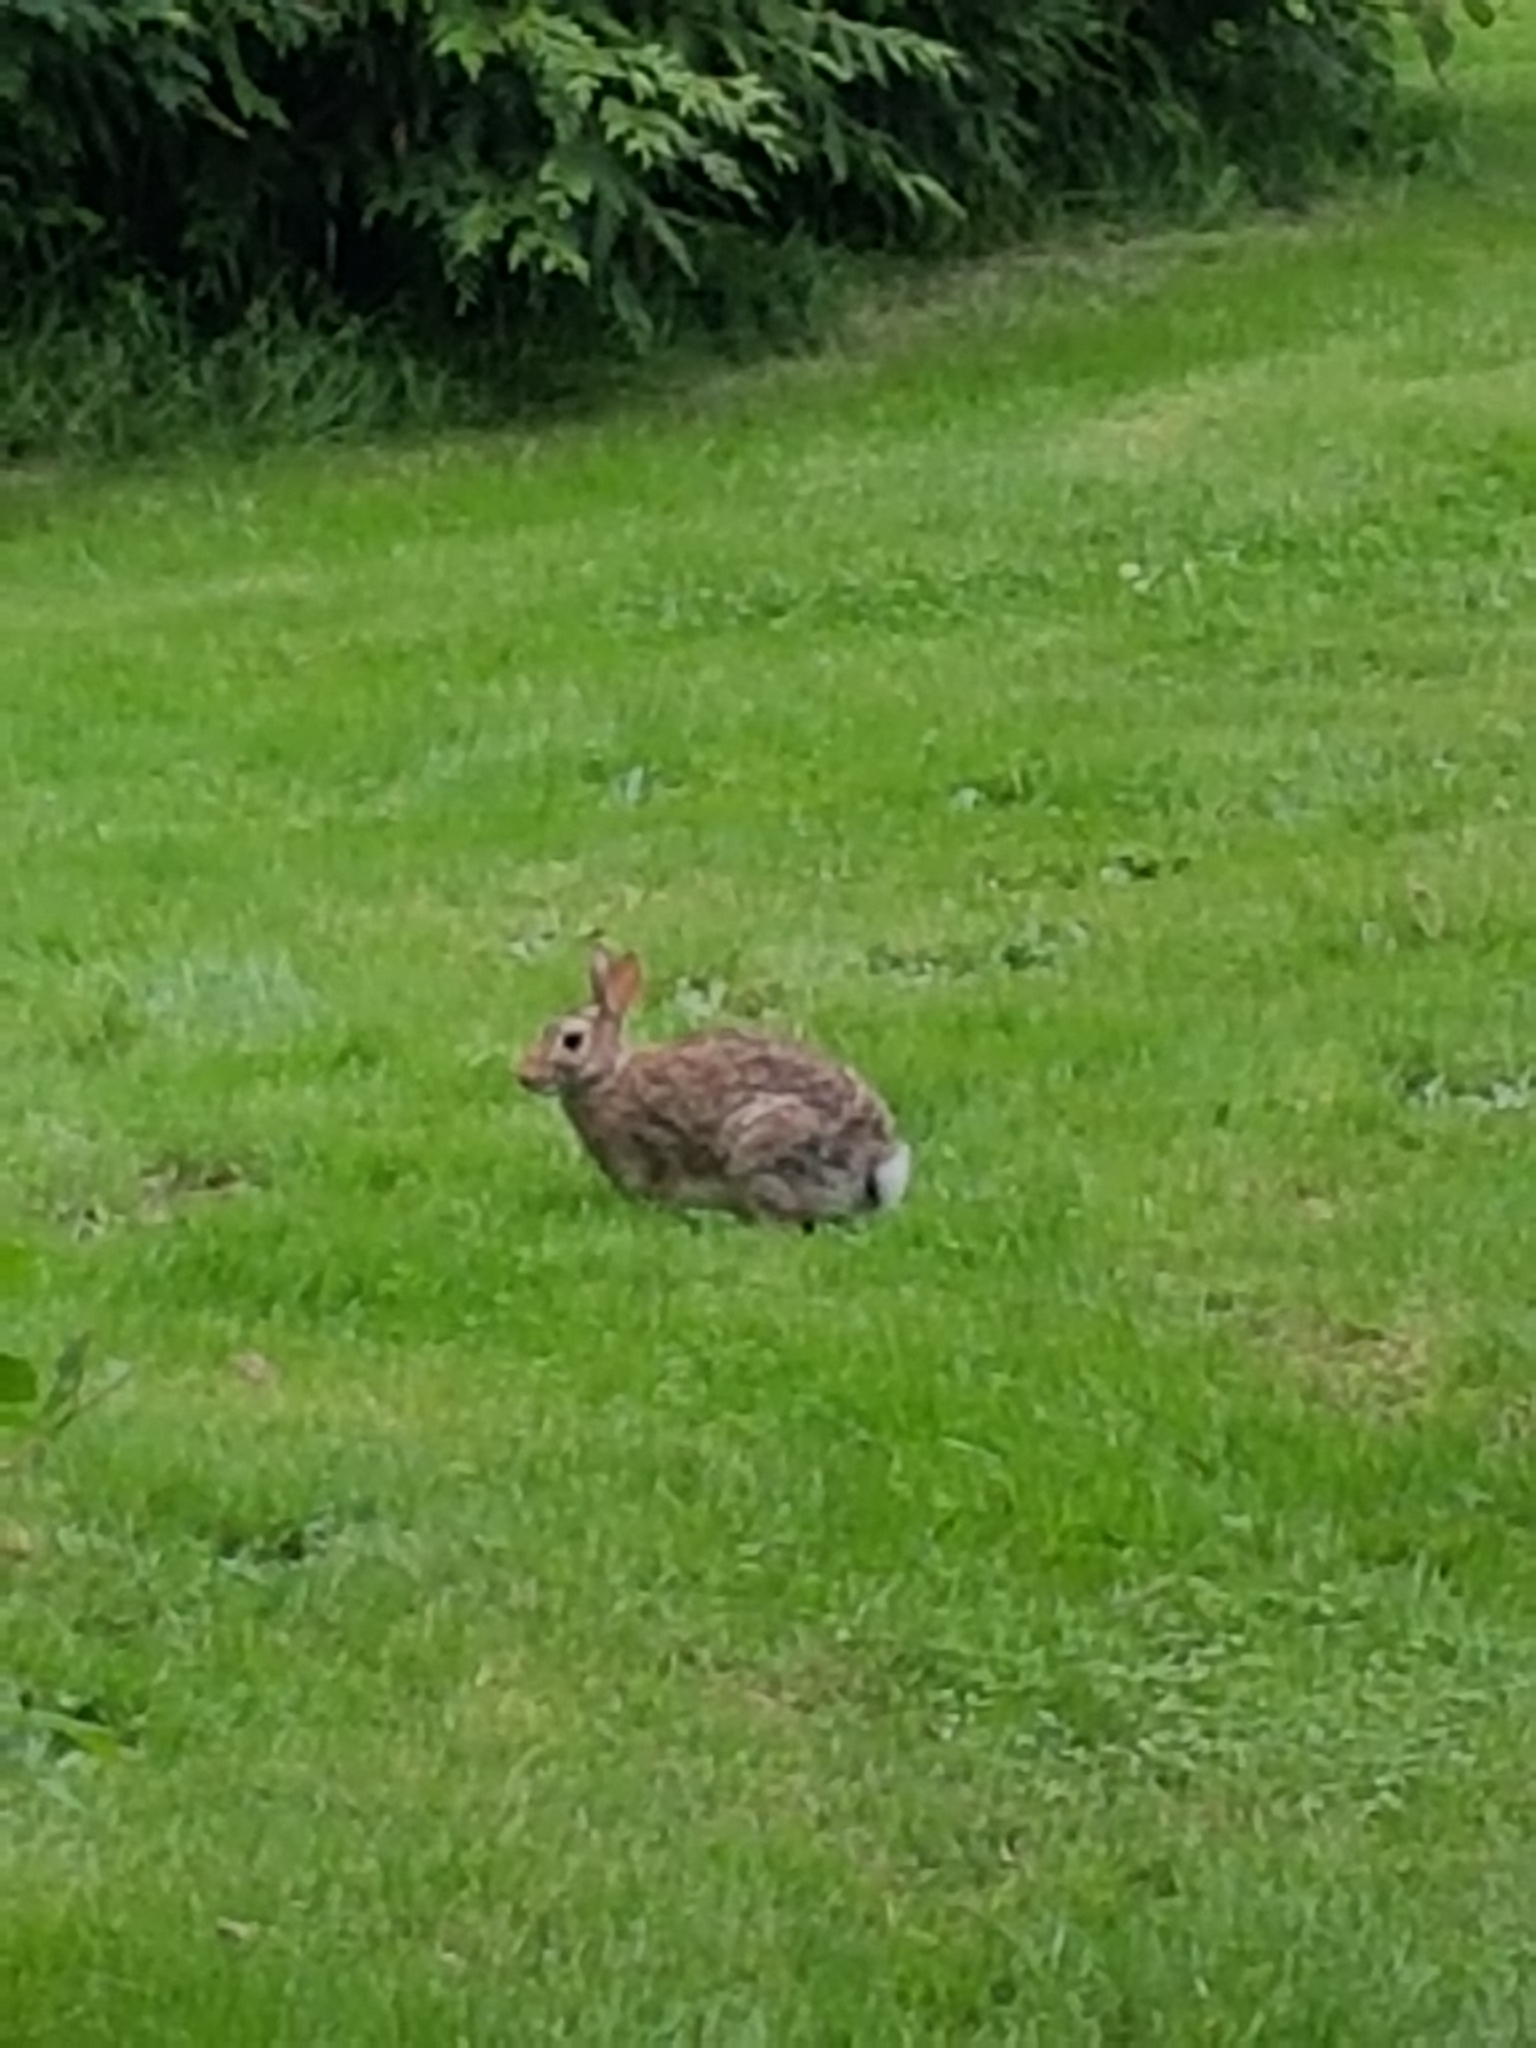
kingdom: Animalia
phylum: Chordata
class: Mammalia
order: Lagomorpha
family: Leporidae
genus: Sylvilagus
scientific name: Sylvilagus floridanus
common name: Eastern cottontail
